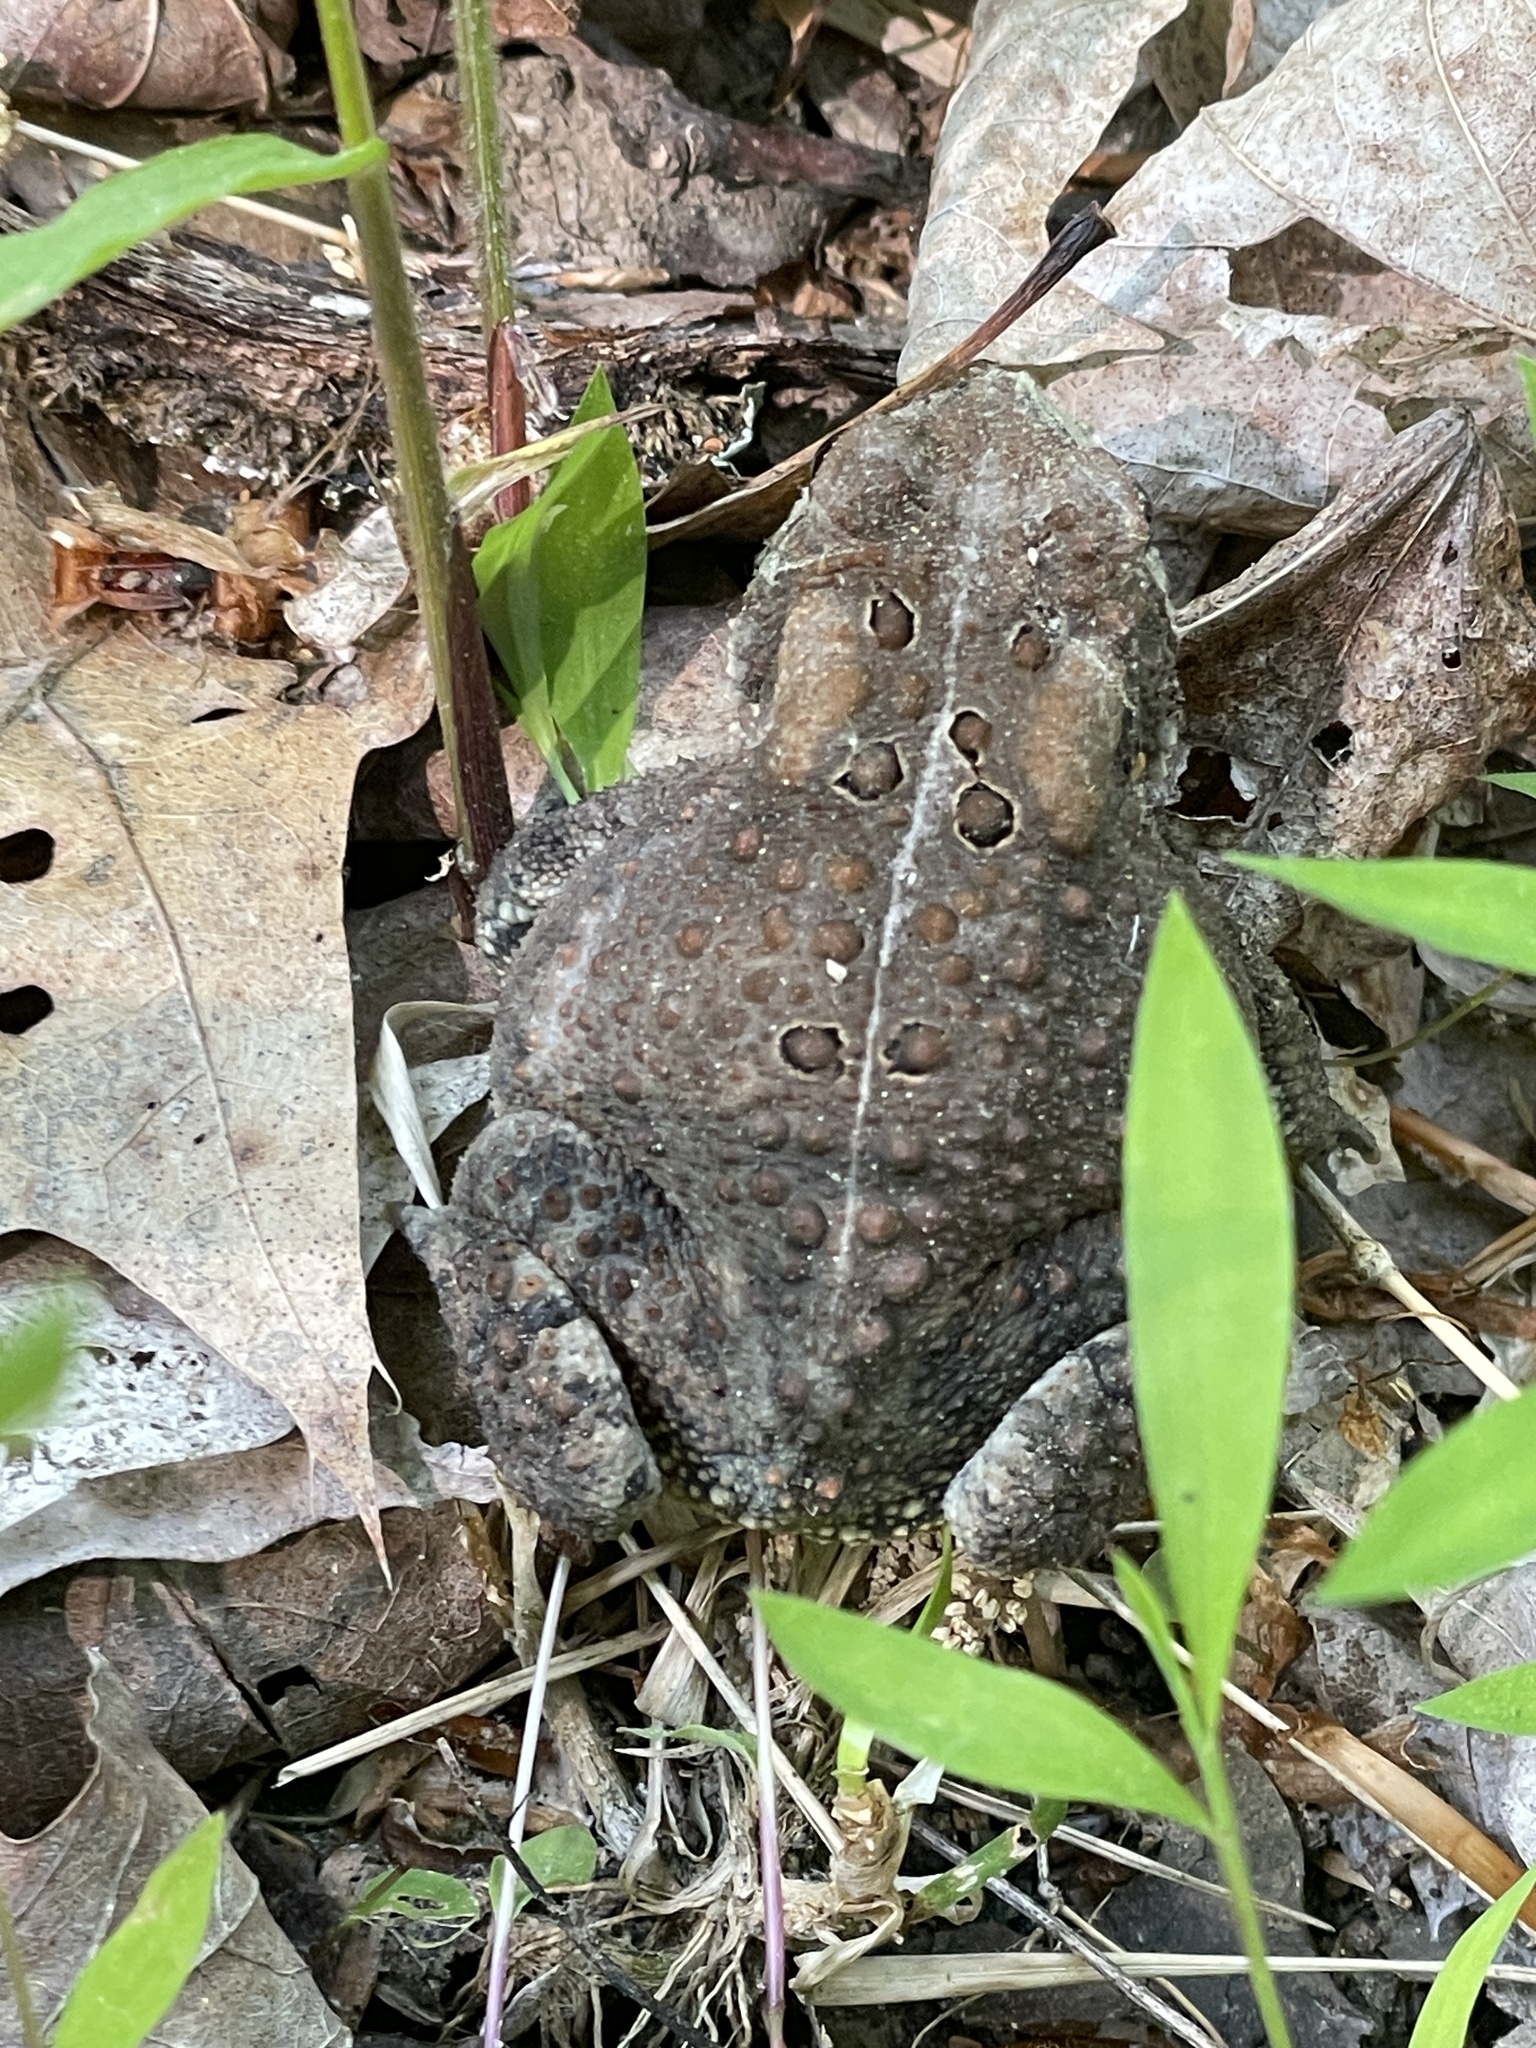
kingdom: Animalia
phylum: Chordata
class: Amphibia
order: Anura
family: Bufonidae
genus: Anaxyrus
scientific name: Anaxyrus americanus
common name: American toad
